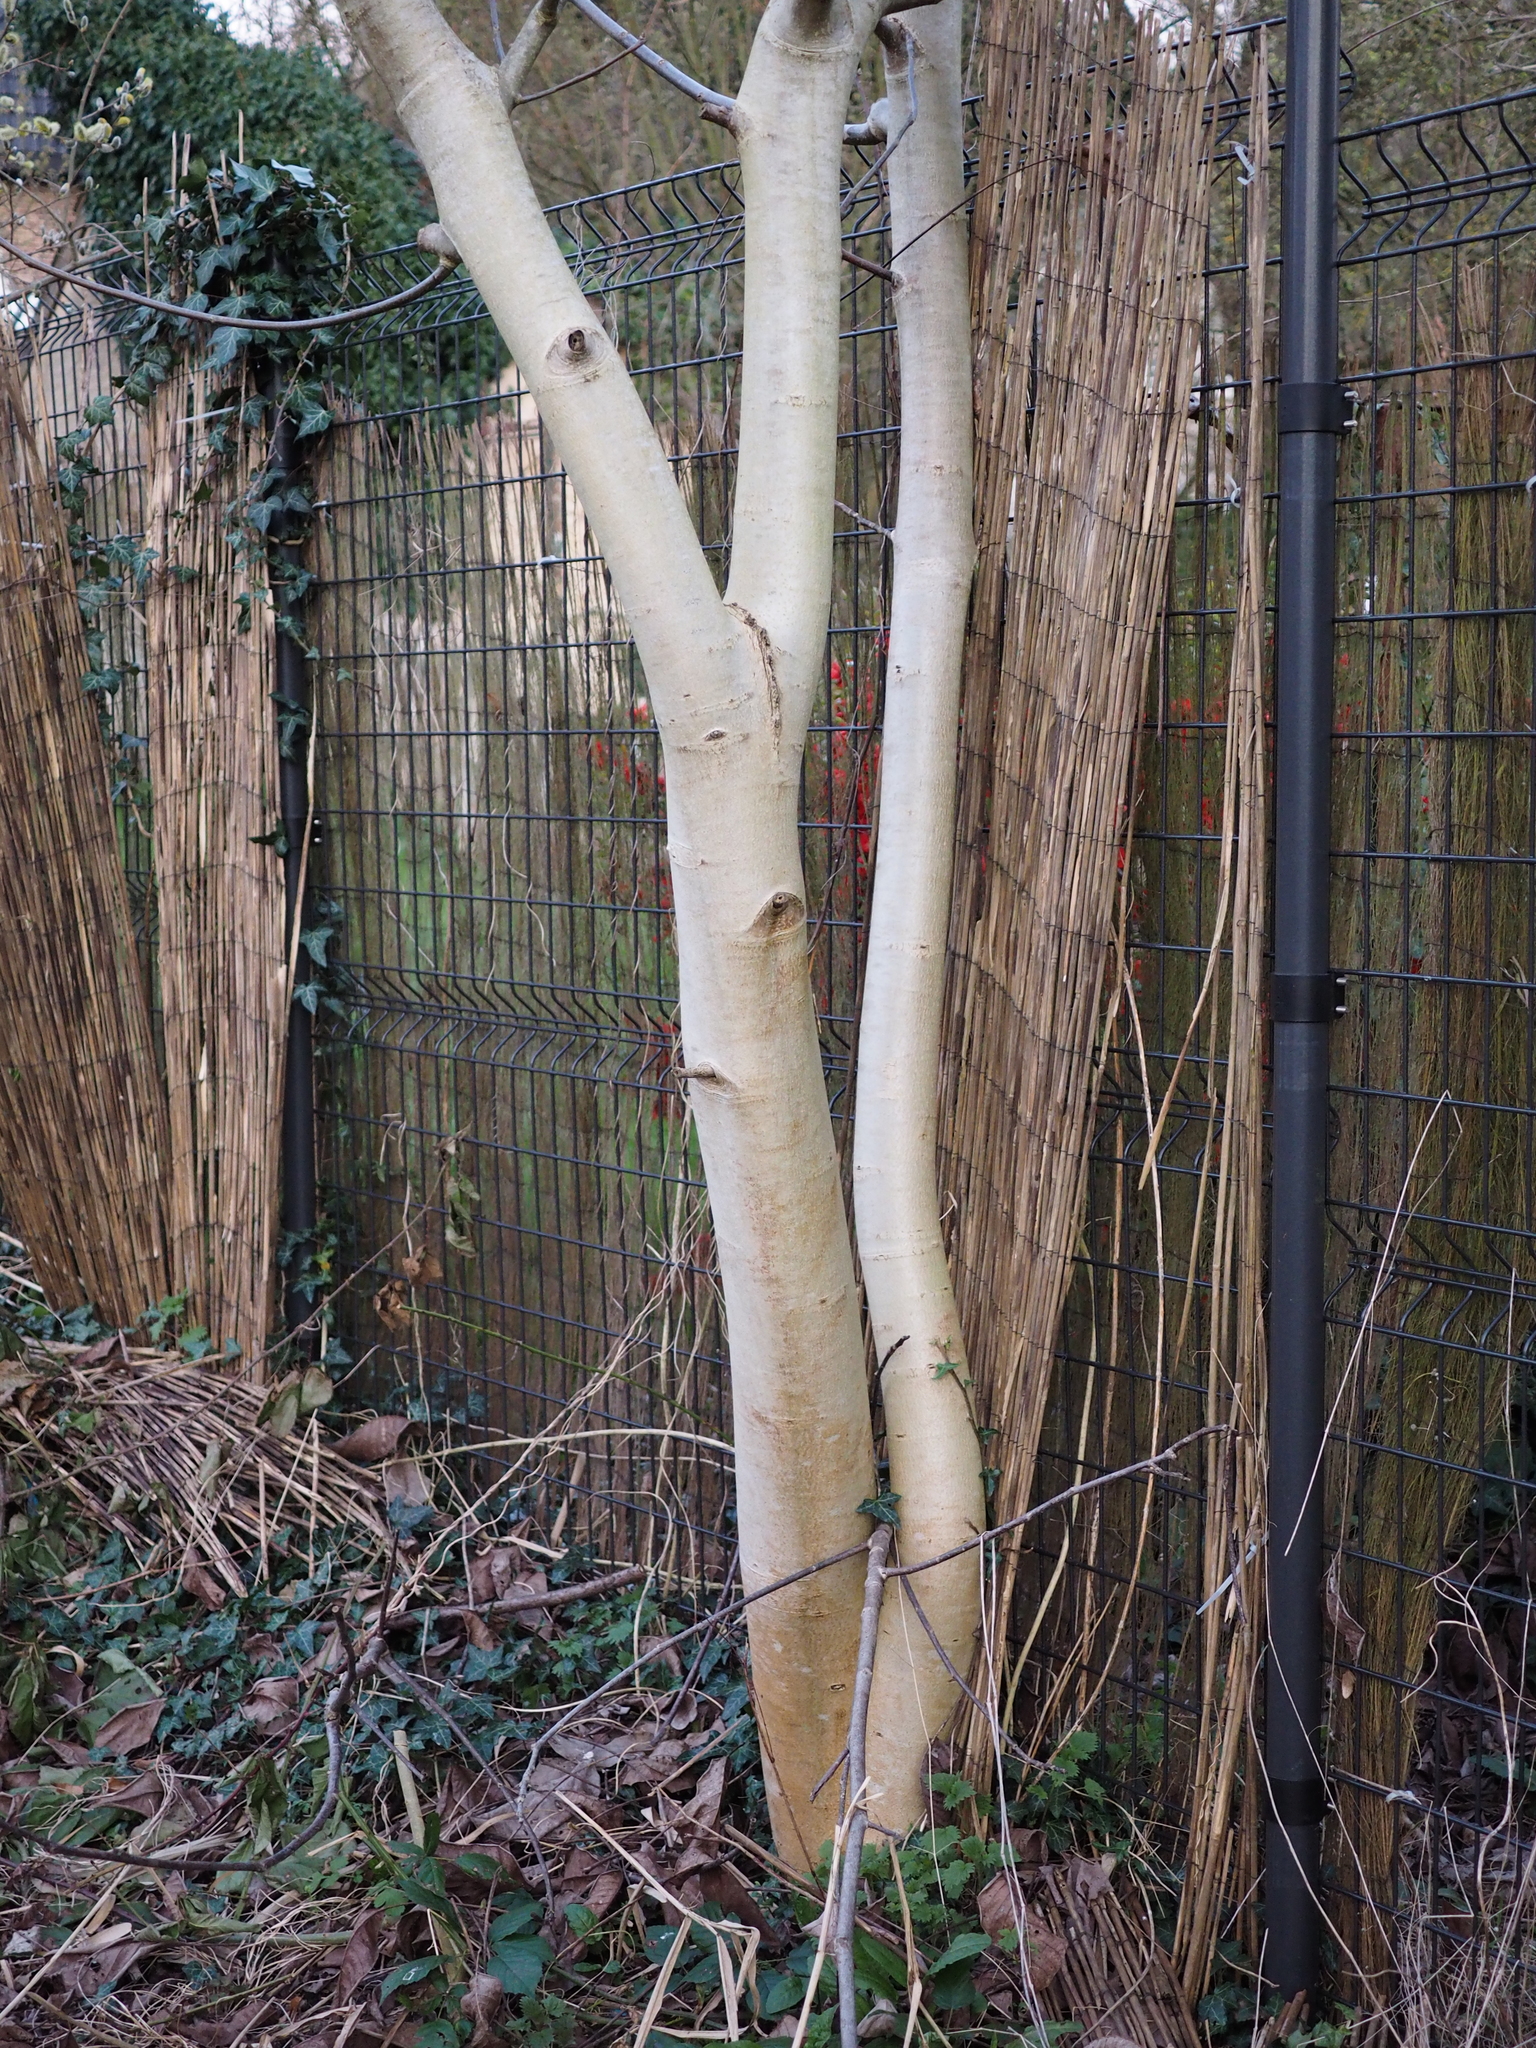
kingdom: Plantae
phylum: Tracheophyta
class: Magnoliopsida
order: Fagales
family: Juglandaceae
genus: Juglans
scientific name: Juglans regia
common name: Walnut
